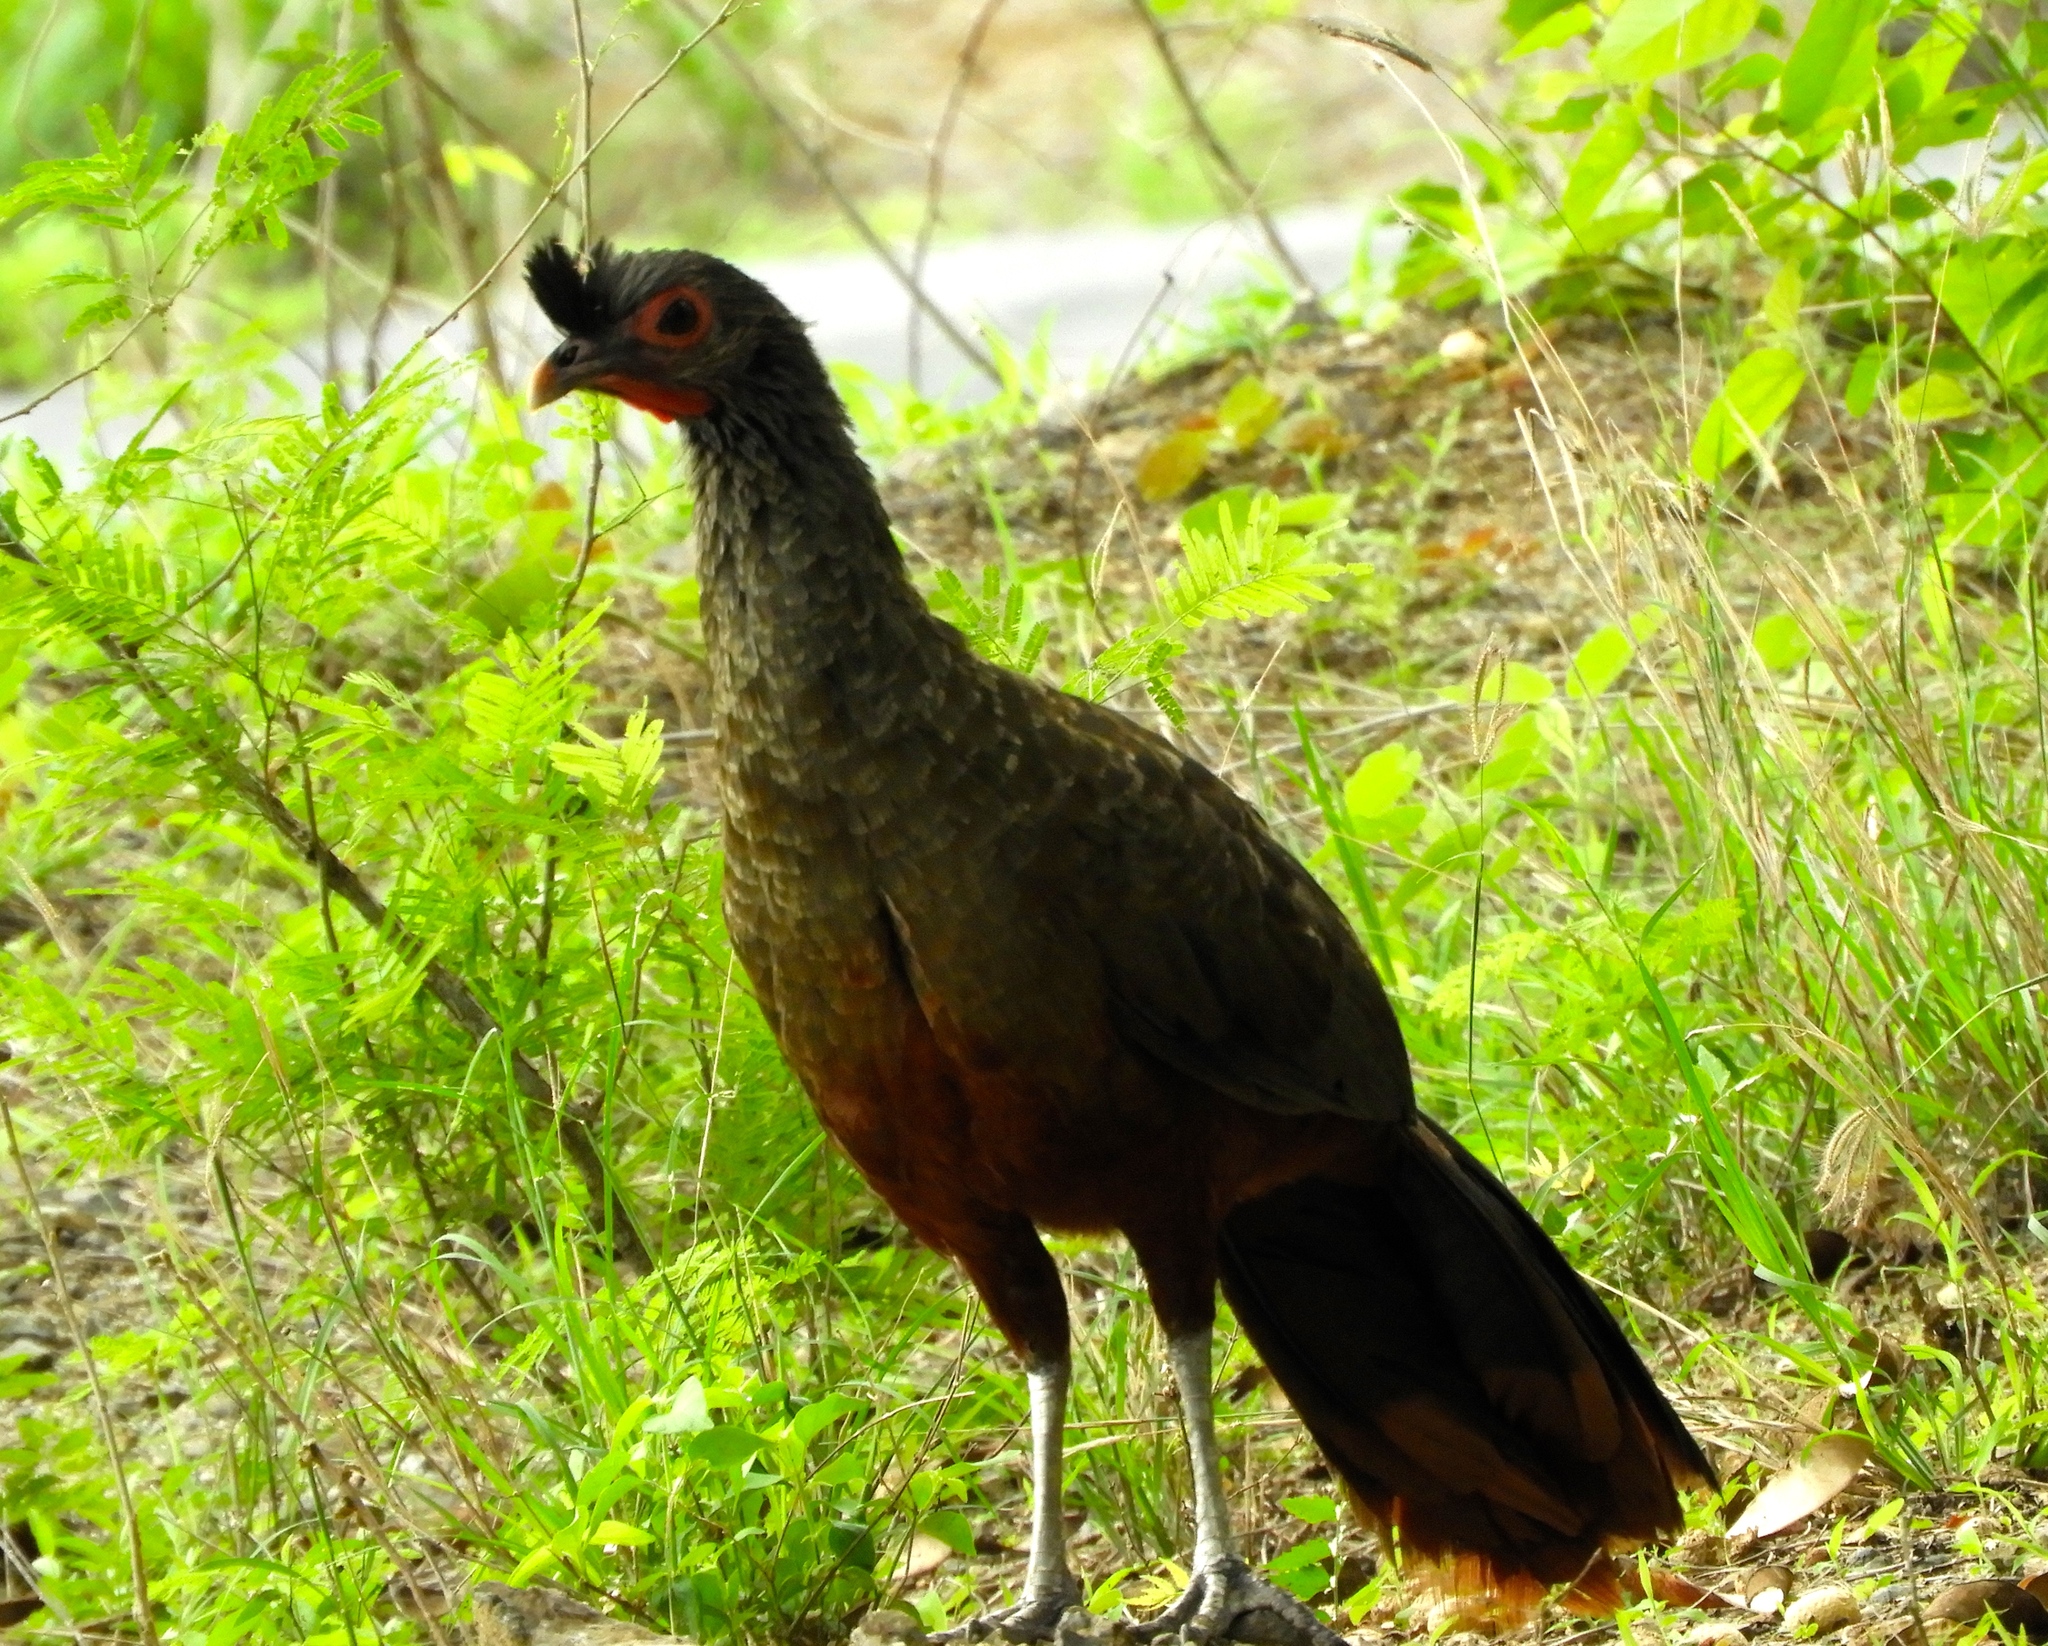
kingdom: Animalia
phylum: Chordata
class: Aves
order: Galliformes
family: Cracidae
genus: Ortalis
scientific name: Ortalis wagleri
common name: Rufous-bellied chachalaca
